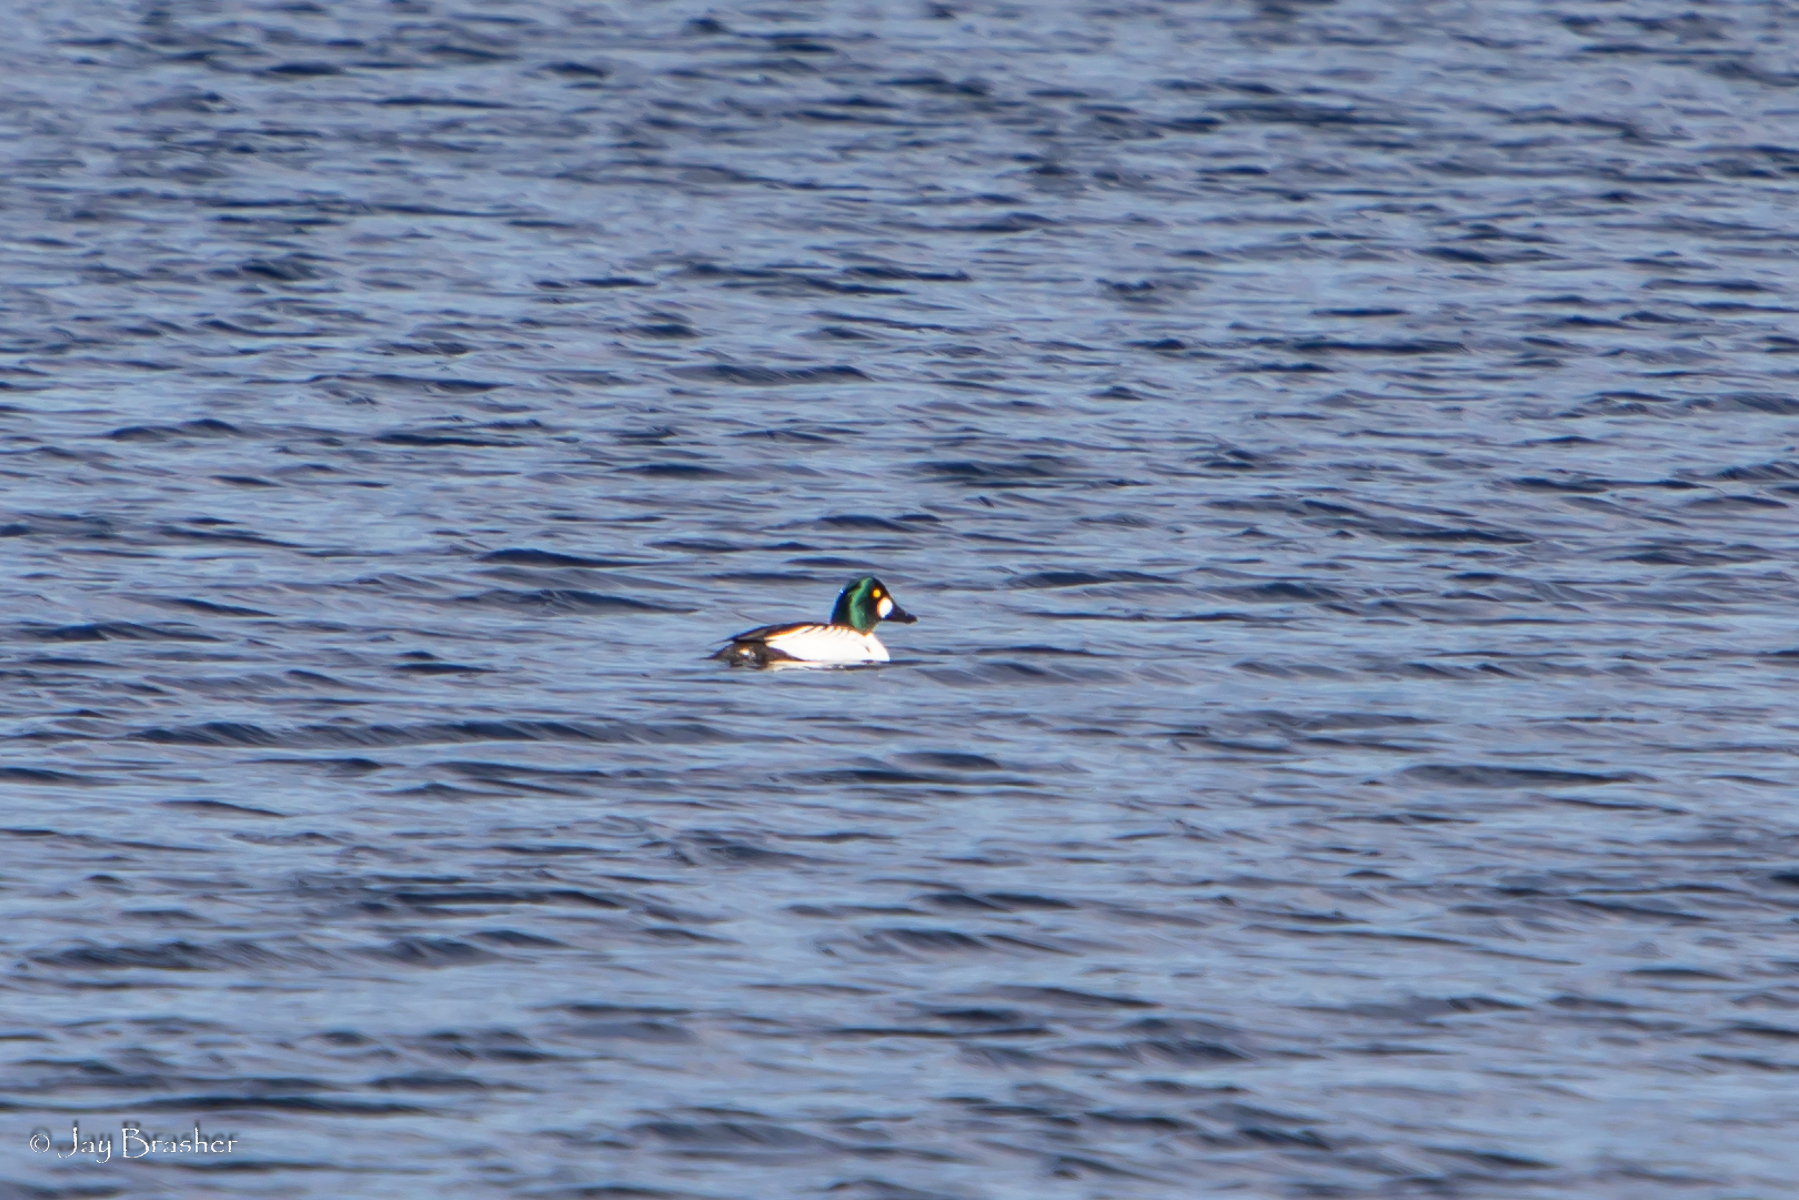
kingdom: Animalia
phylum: Chordata
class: Aves
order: Anseriformes
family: Anatidae
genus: Bucephala
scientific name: Bucephala clangula
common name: Common goldeneye
